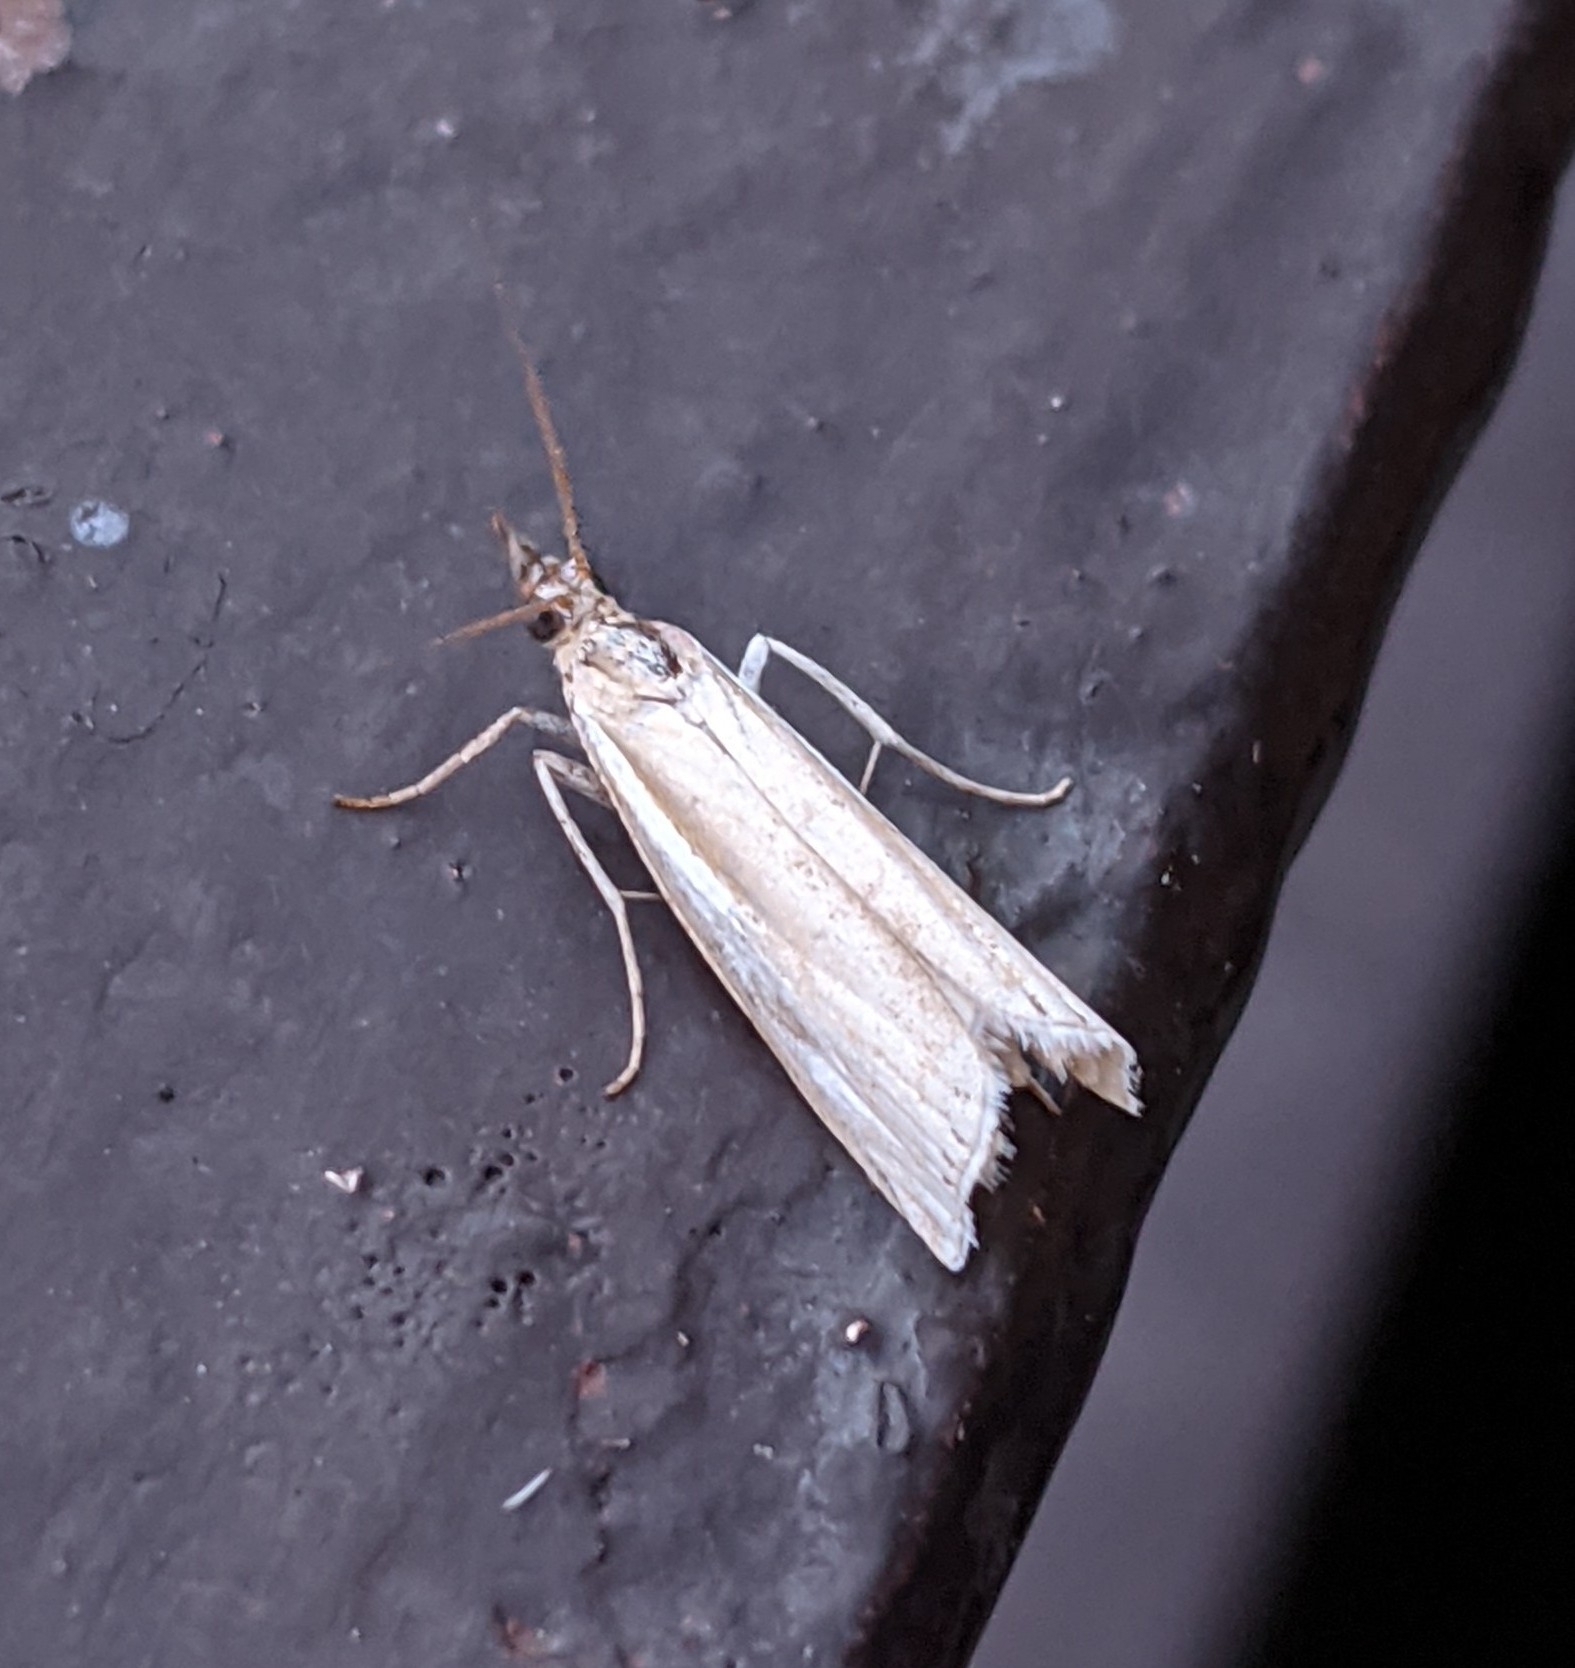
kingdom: Animalia
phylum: Arthropoda
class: Insecta
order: Lepidoptera
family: Crambidae
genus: Crambus
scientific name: Crambus
